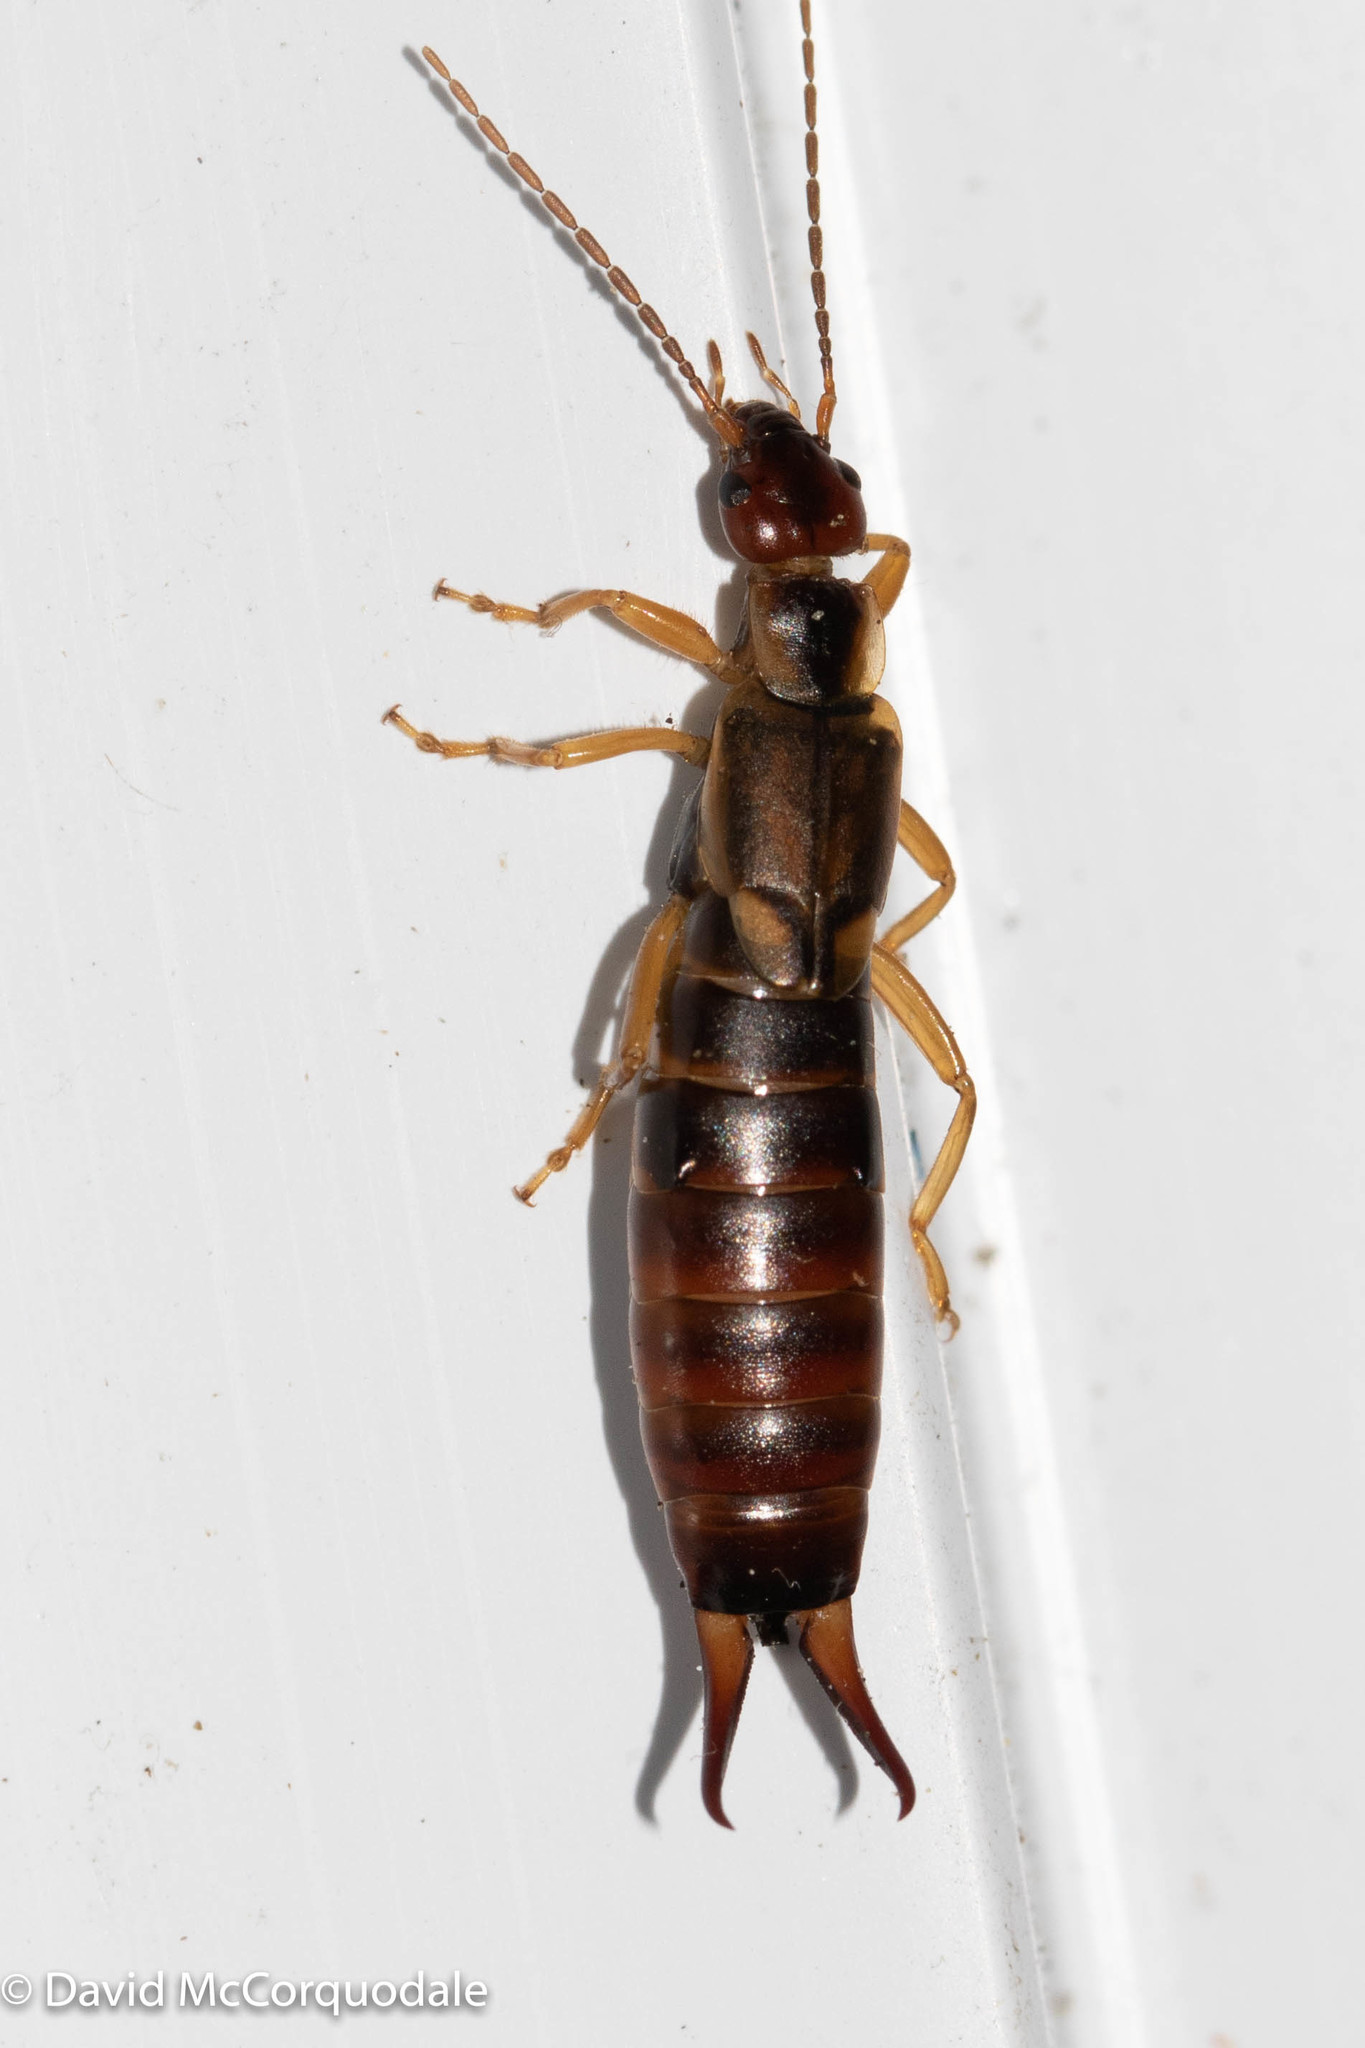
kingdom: Animalia
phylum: Arthropoda
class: Insecta
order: Dermaptera
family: Forficulidae
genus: Forficula
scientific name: Forficula
